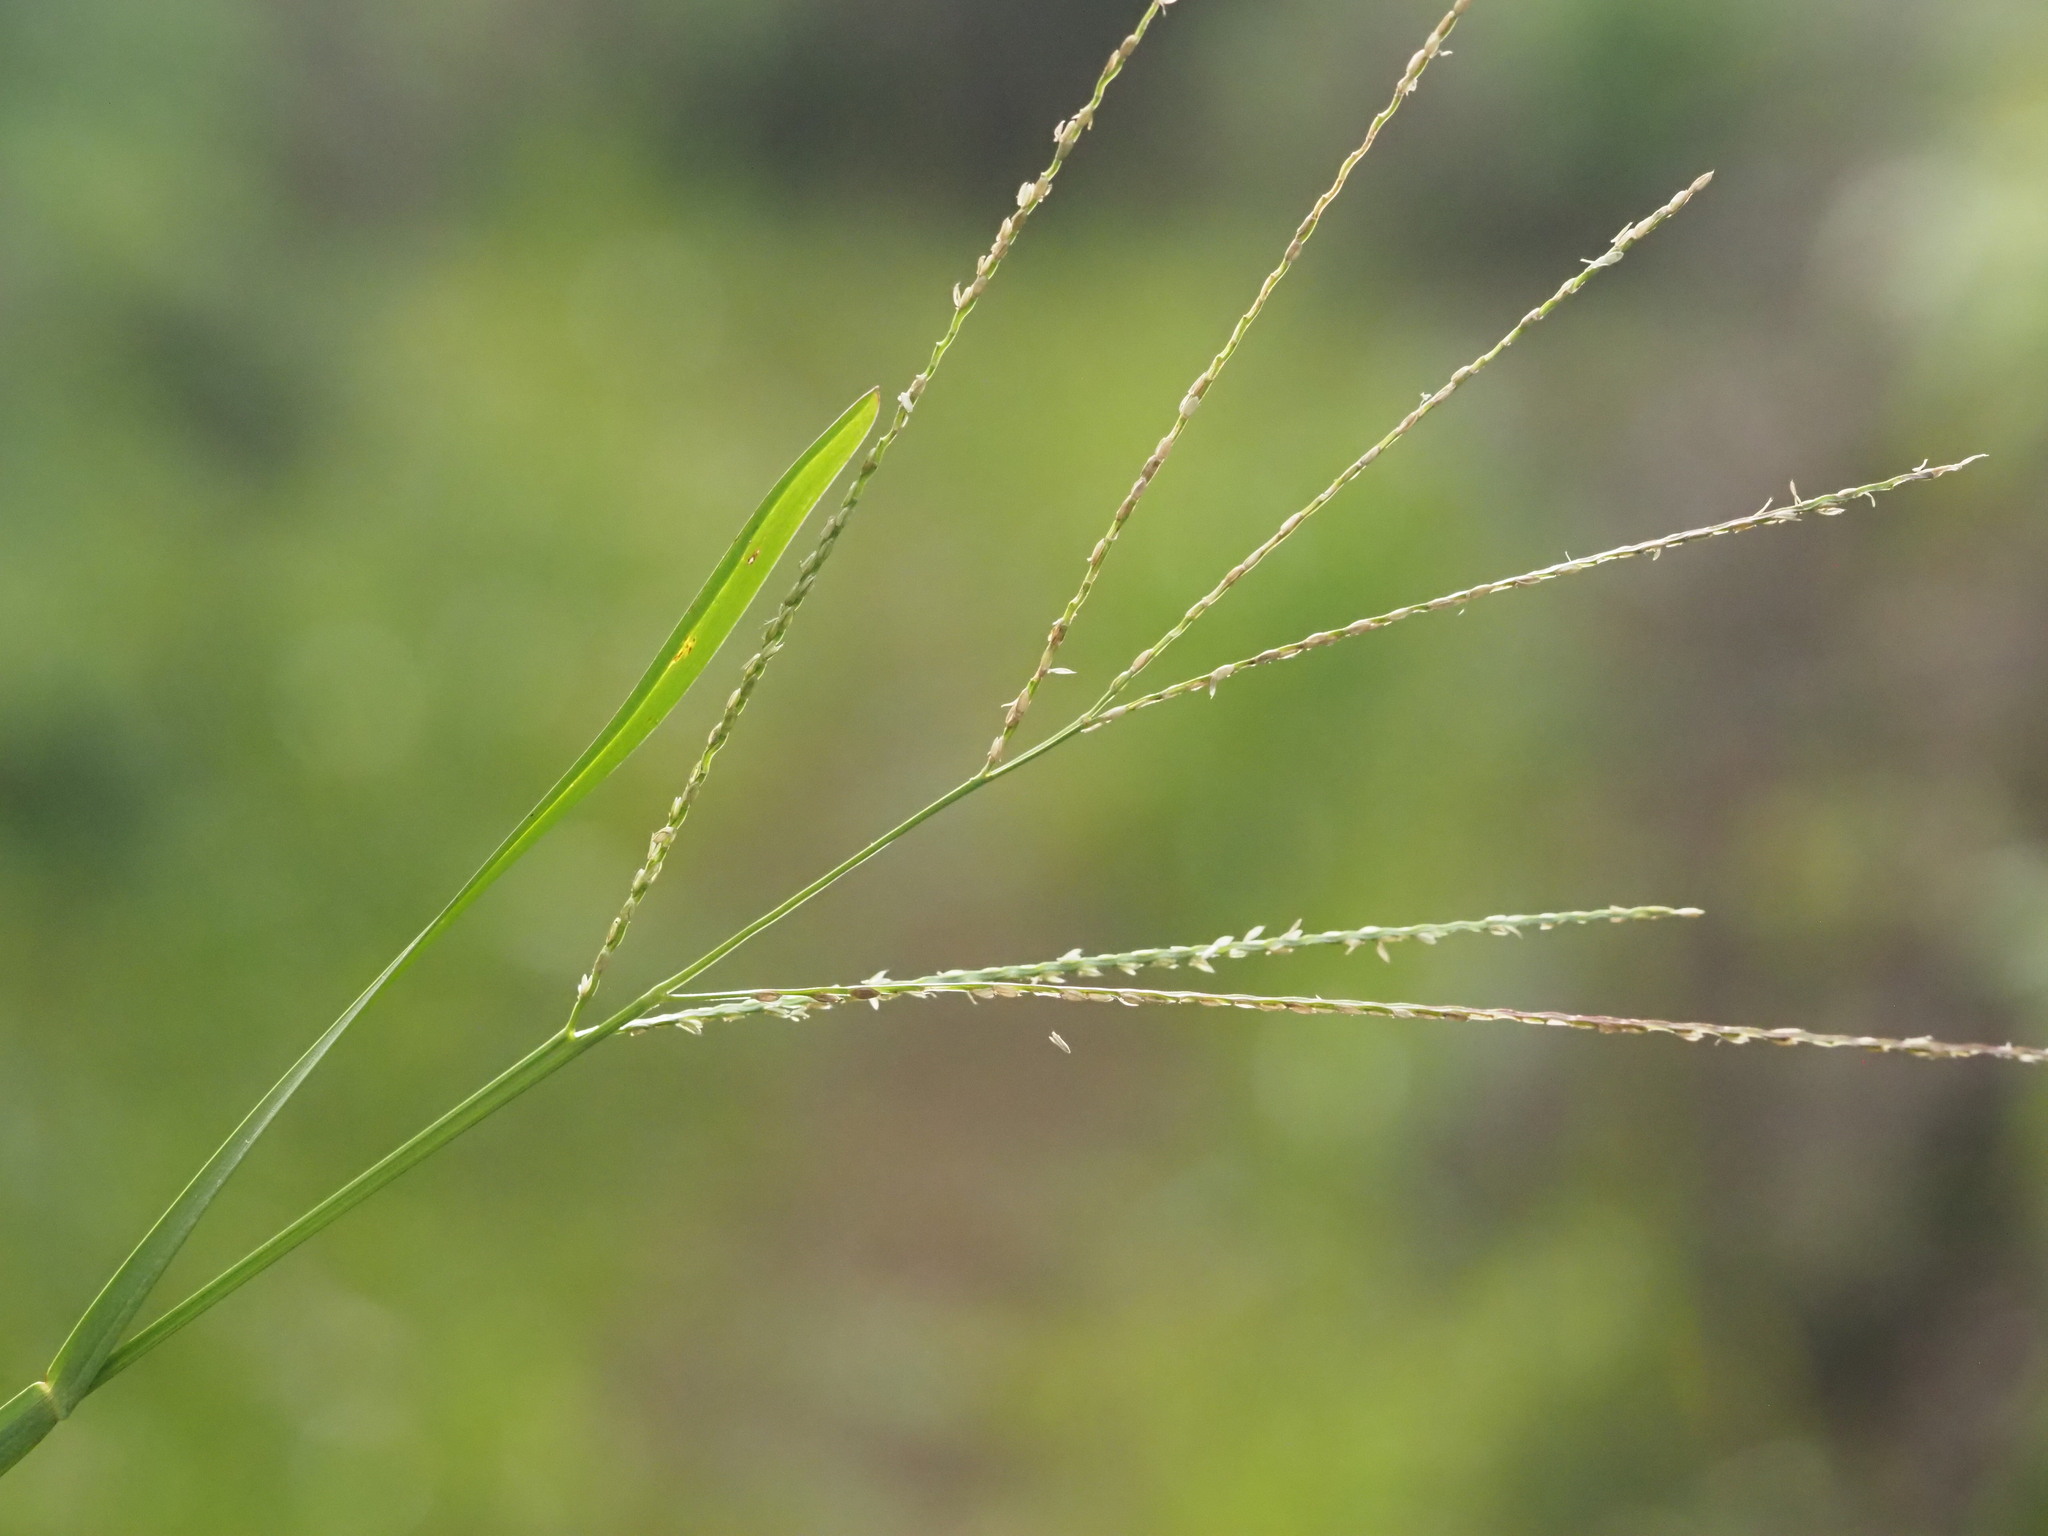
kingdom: Plantae
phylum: Tracheophyta
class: Liliopsida
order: Poales
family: Poaceae
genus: Axonopus
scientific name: Axonopus fissifolius
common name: Common carpetgrass
